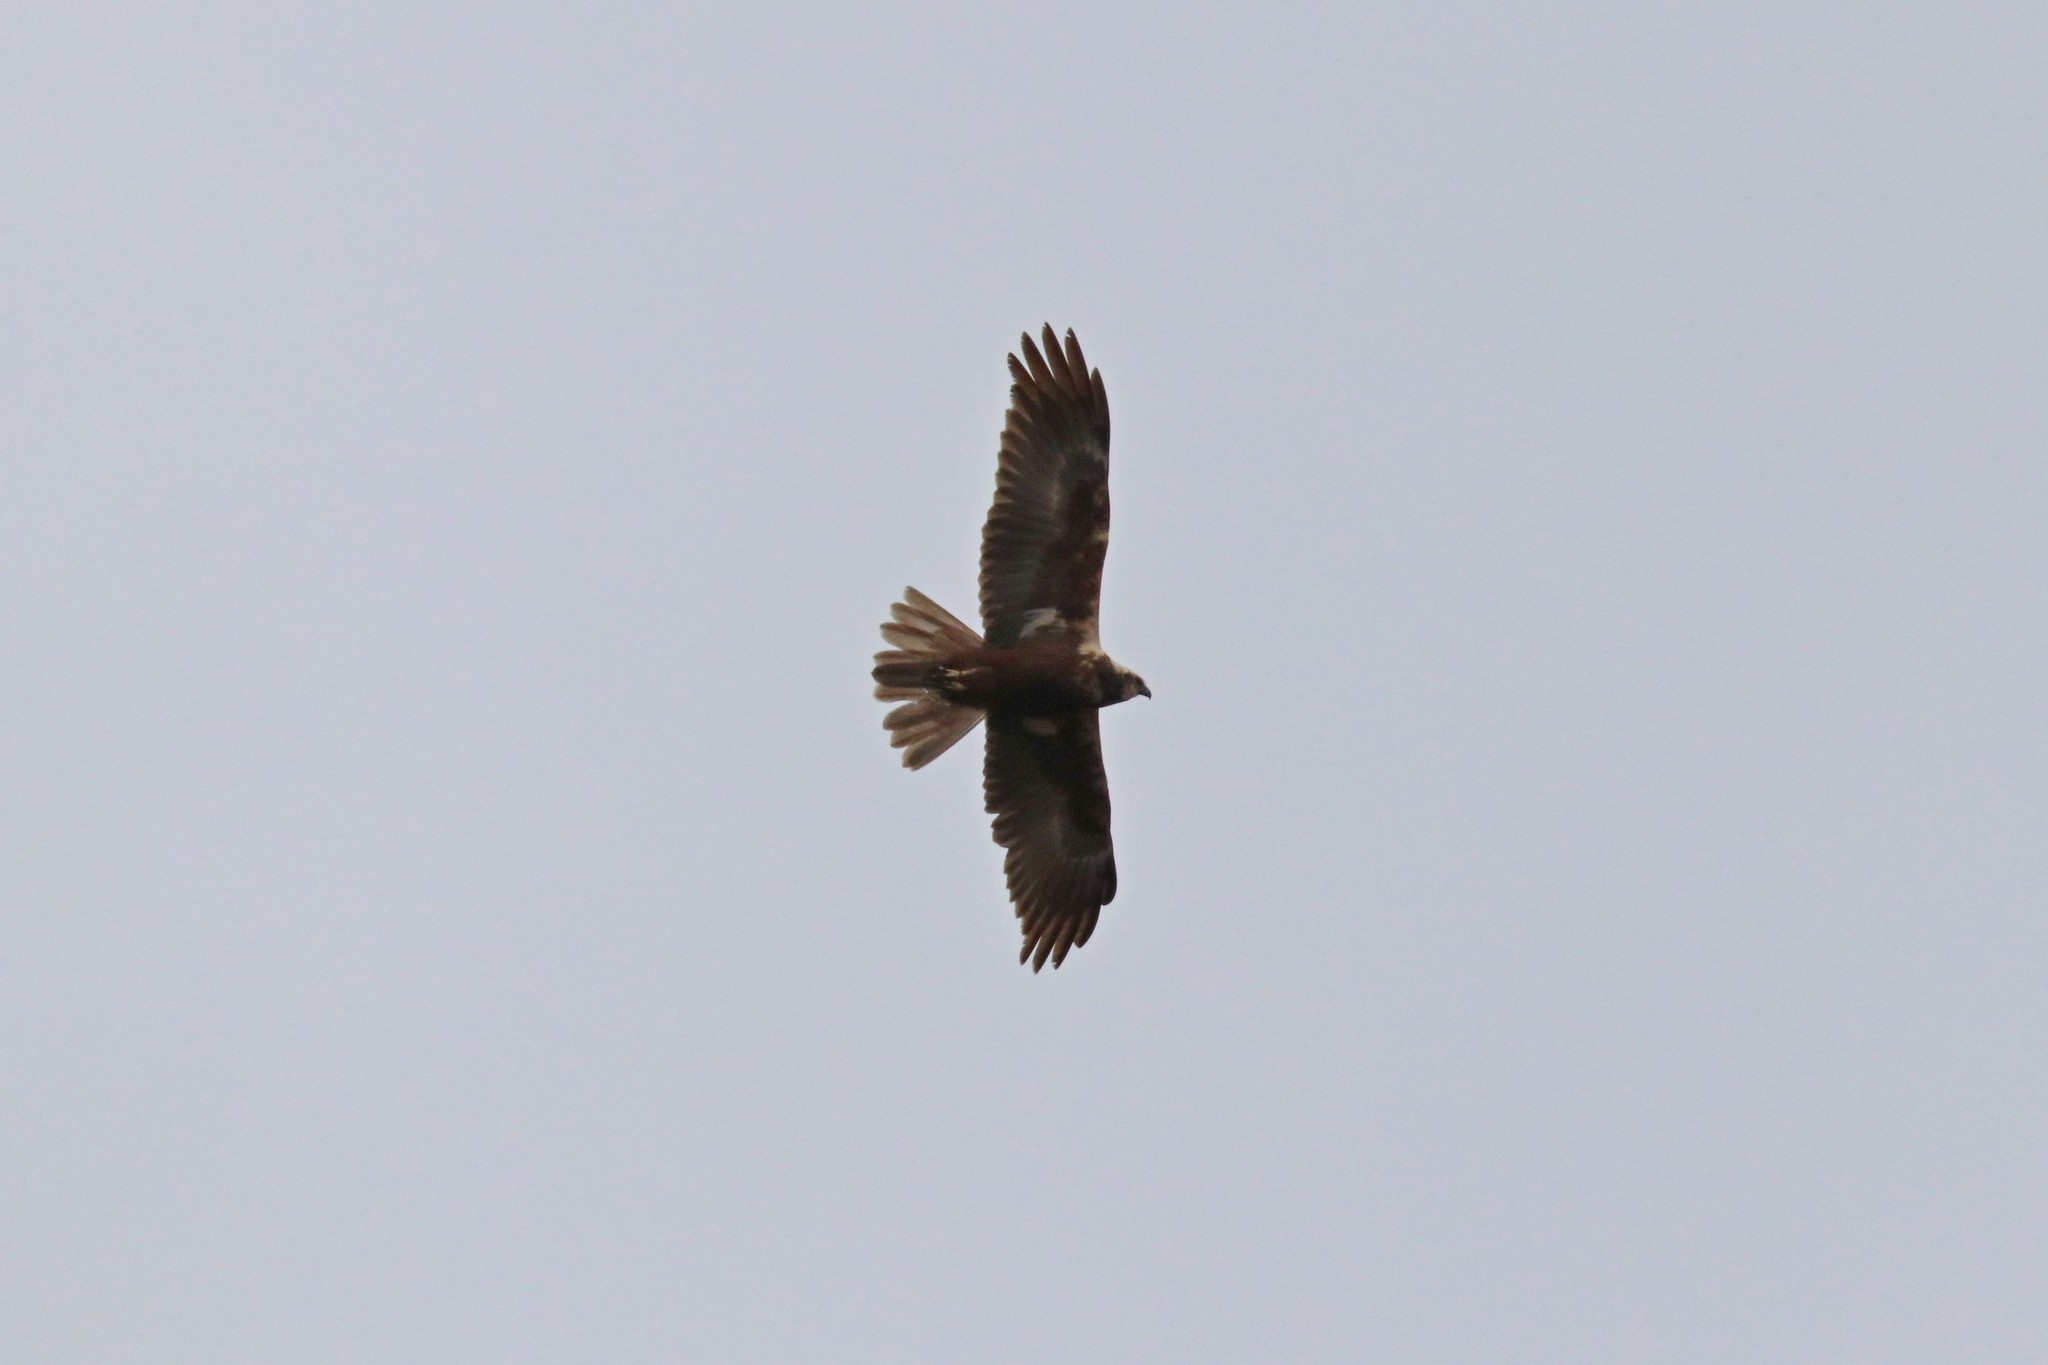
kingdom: Animalia
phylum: Chordata
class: Aves
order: Accipitriformes
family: Accipitridae
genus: Circus
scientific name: Circus aeruginosus
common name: Western marsh harrier
